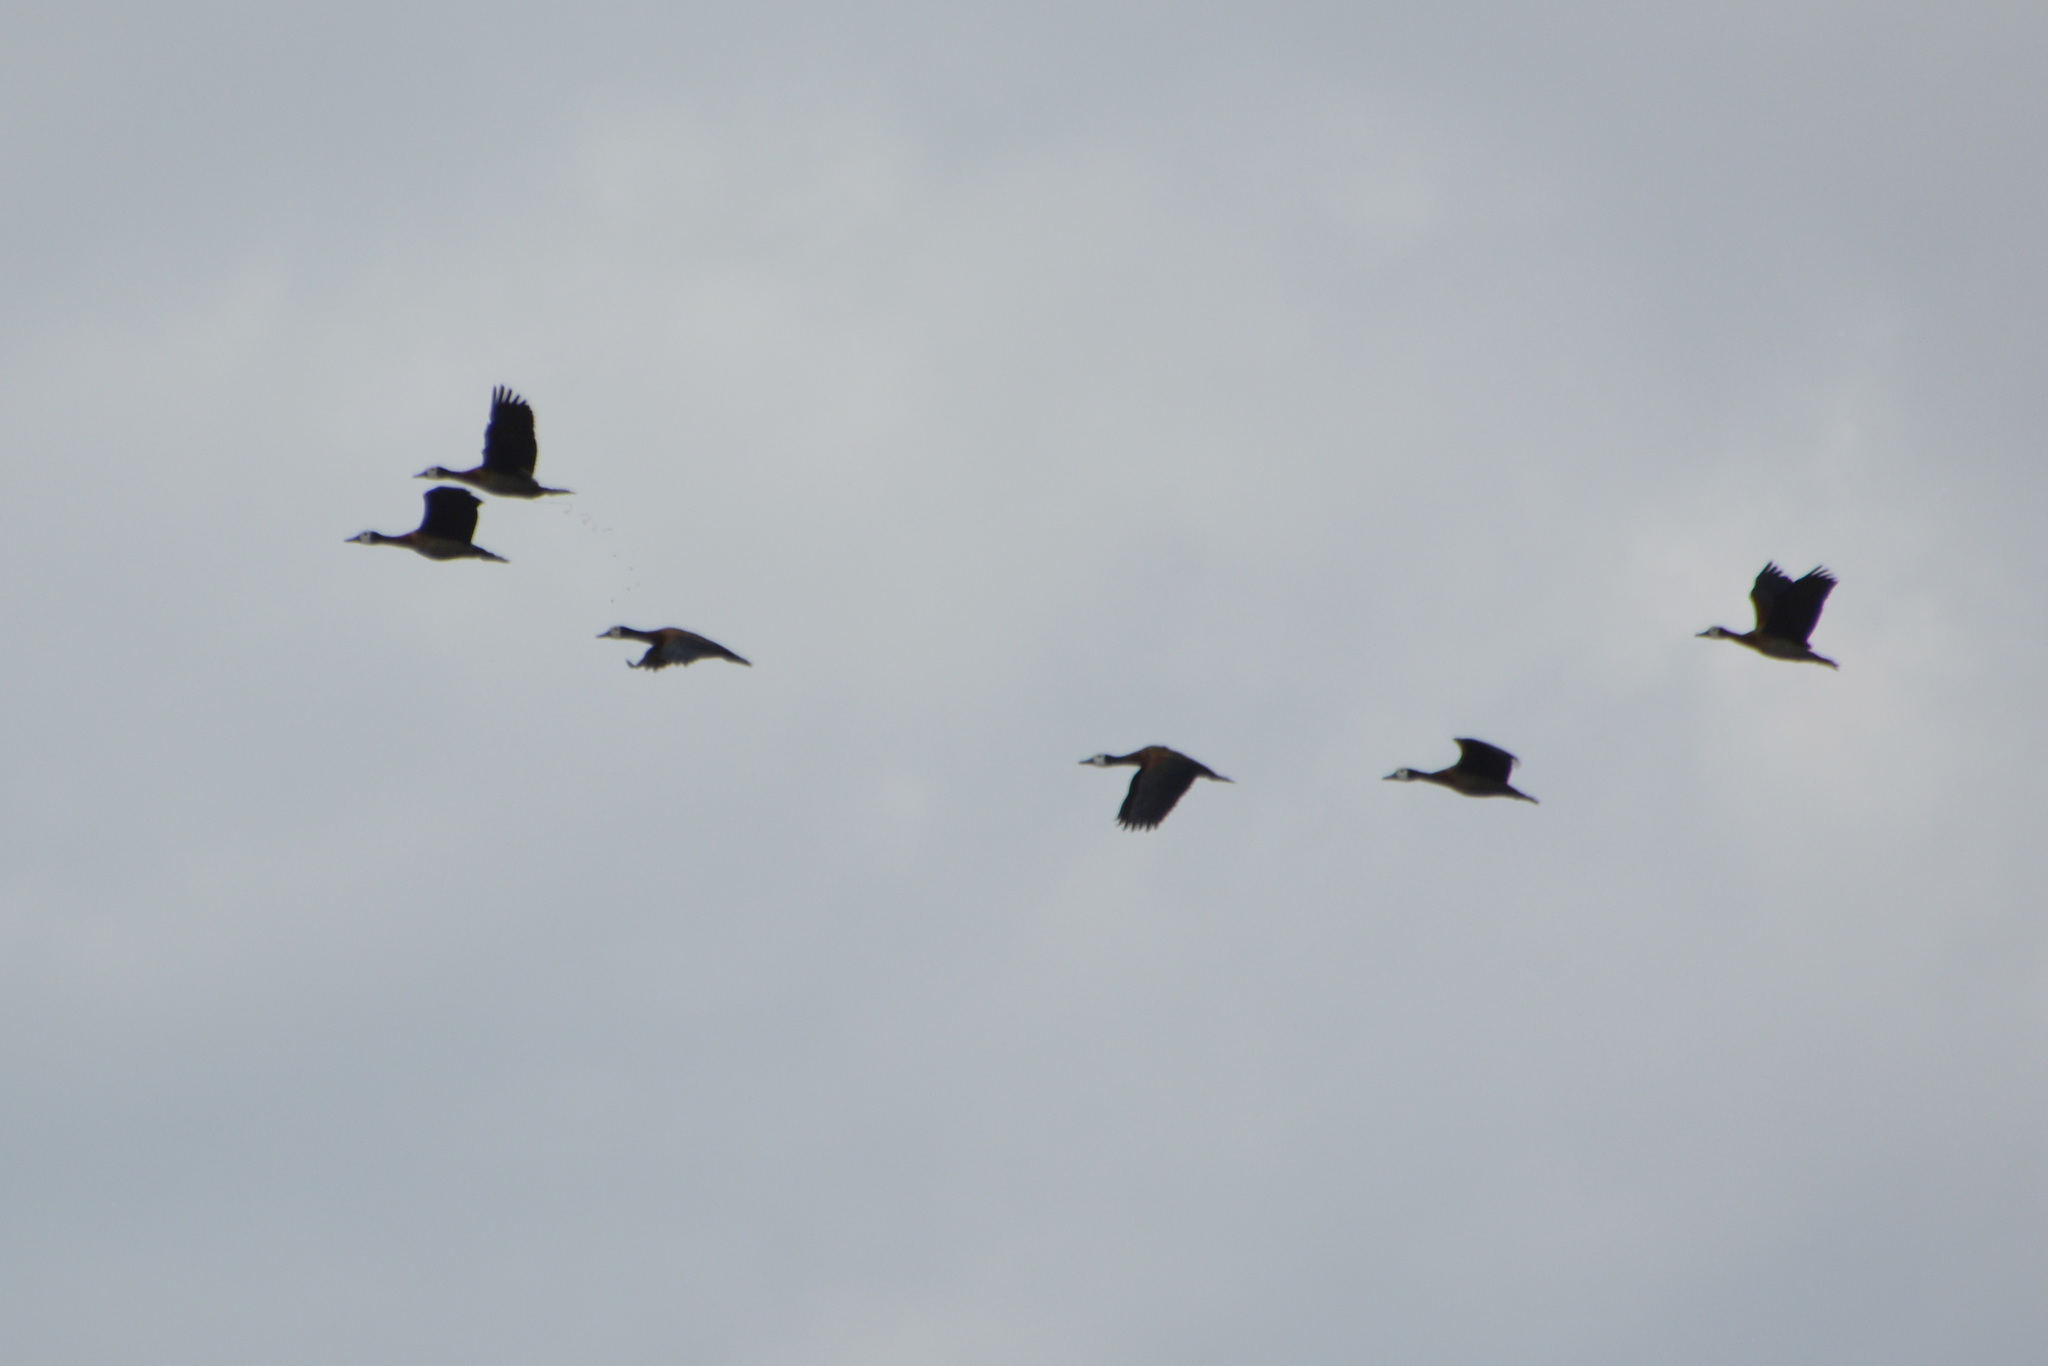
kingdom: Animalia
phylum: Chordata
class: Aves
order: Anseriformes
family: Anatidae
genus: Dendrocygna
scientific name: Dendrocygna viduata
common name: White-faced whistling duck
